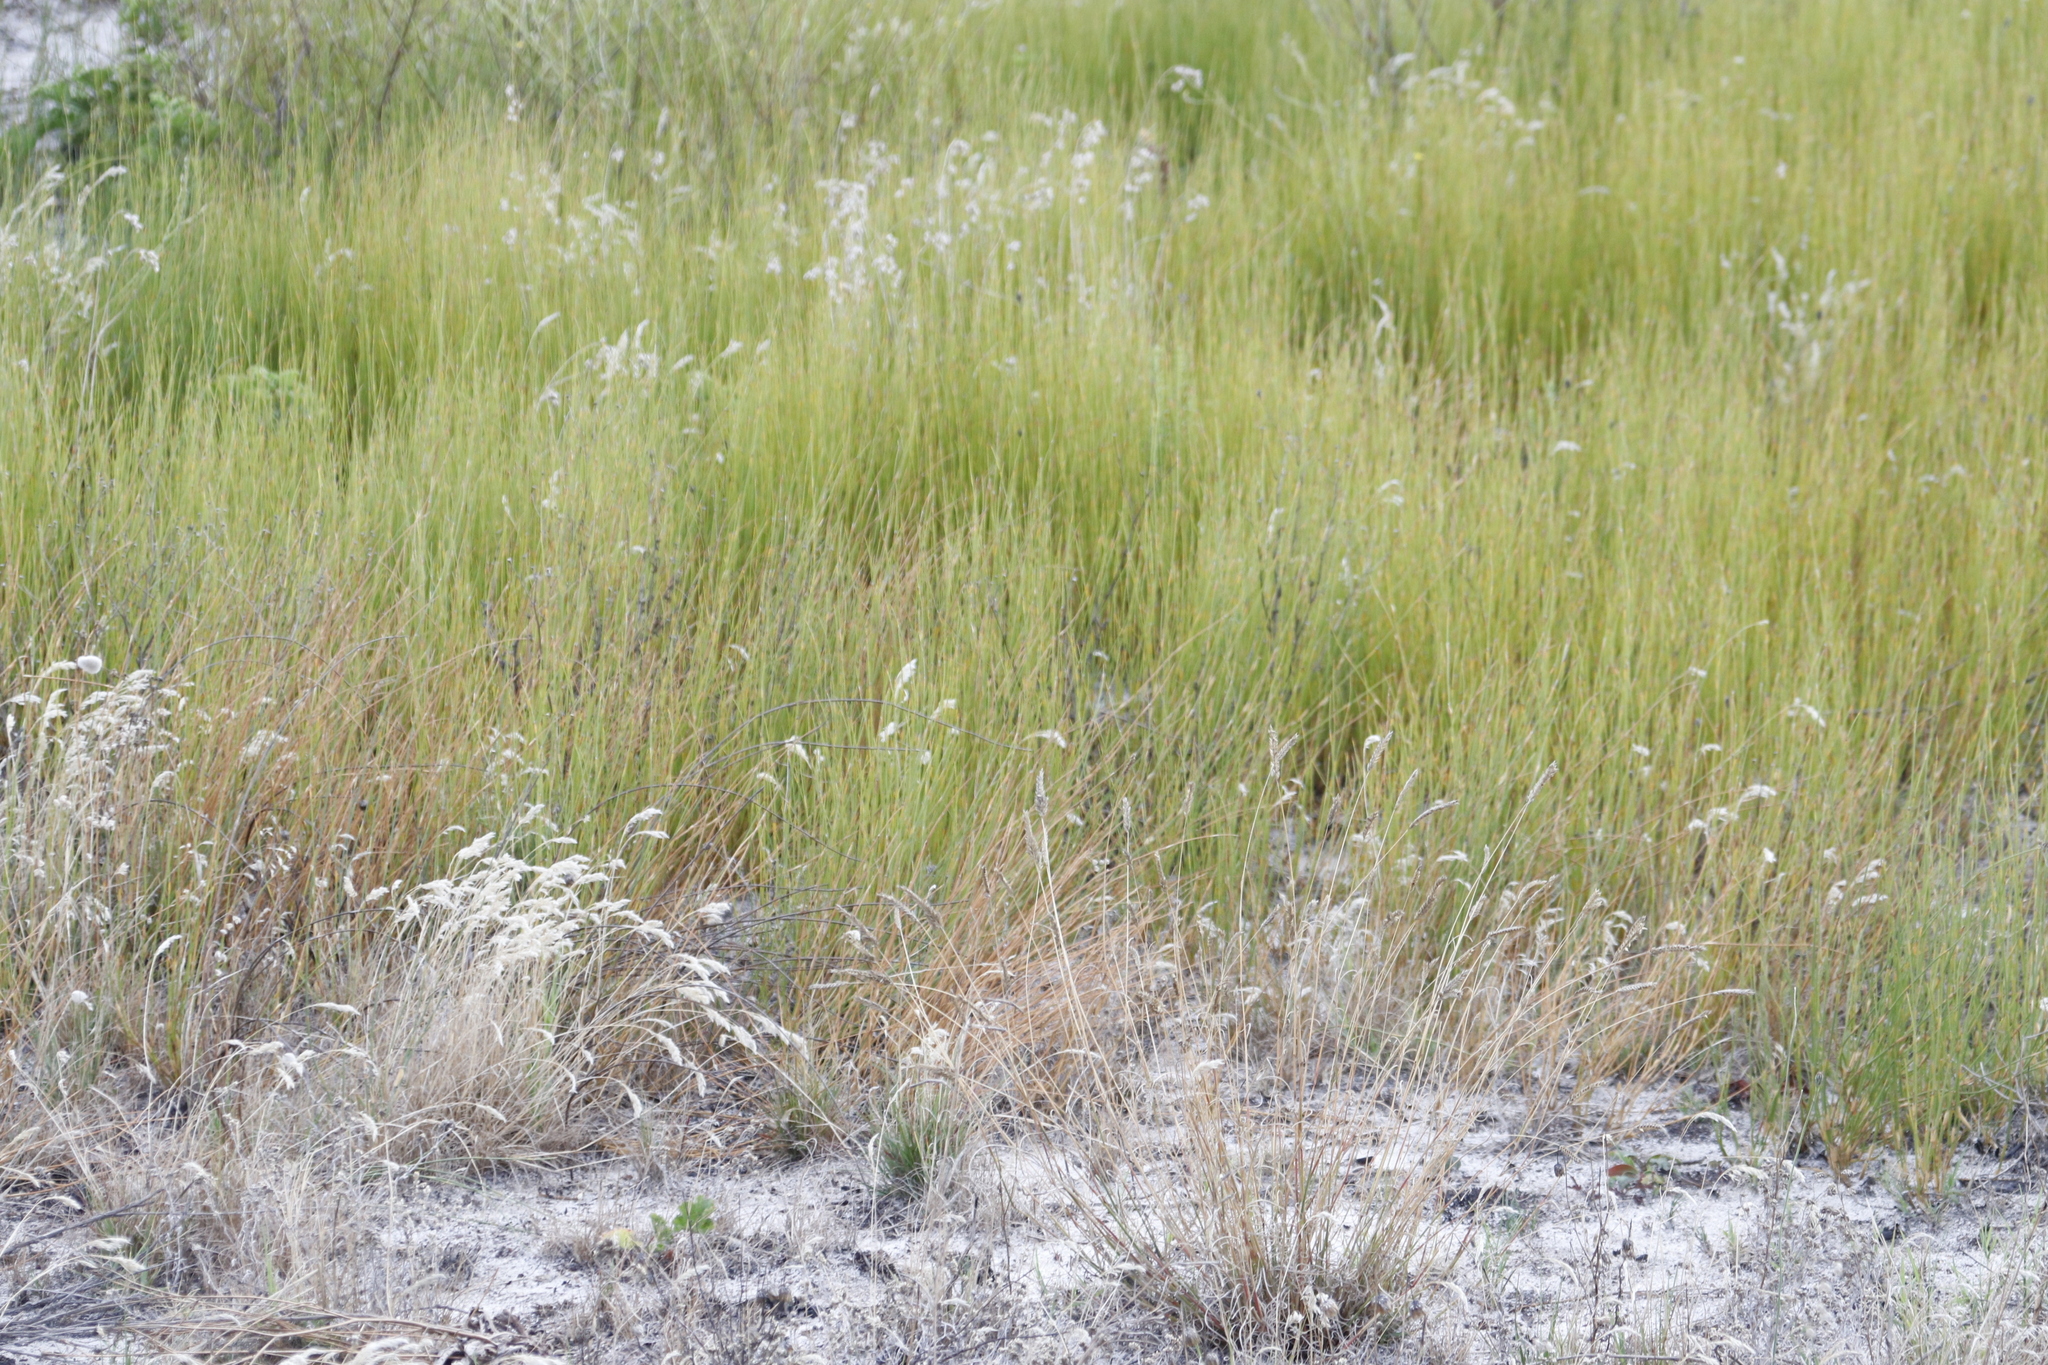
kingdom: Plantae
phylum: Tracheophyta
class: Liliopsida
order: Poales
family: Restionaceae
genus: Willdenowia
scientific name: Willdenowia sulcata
